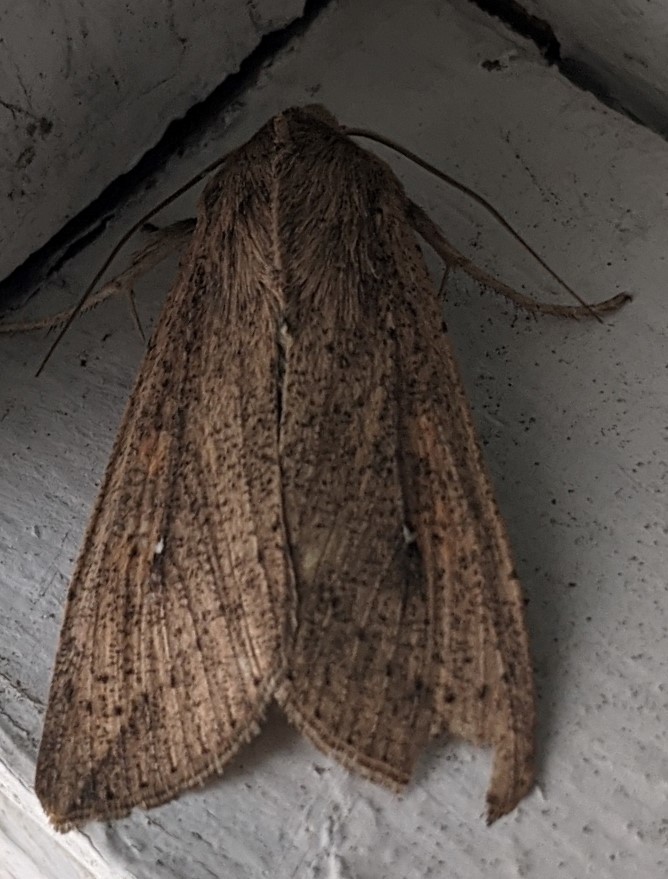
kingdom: Animalia
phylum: Arthropoda
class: Insecta
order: Lepidoptera
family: Noctuidae
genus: Mythimna
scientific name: Mythimna unipuncta
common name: White-speck
